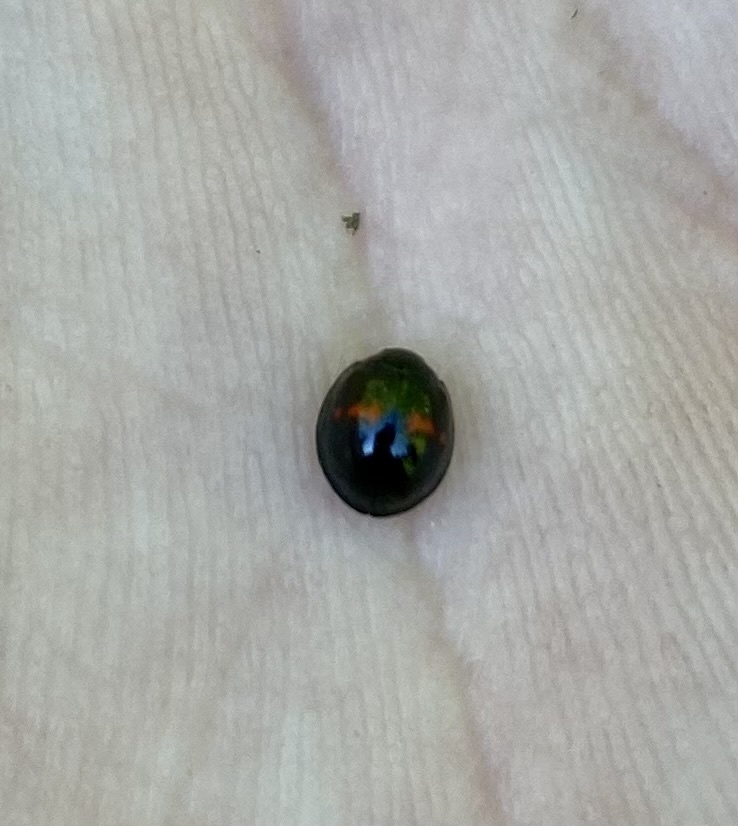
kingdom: Animalia
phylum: Arthropoda
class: Insecta
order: Coleoptera
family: Coccinellidae
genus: Chilocorus
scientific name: Chilocorus bipustulatus
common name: Heather ladybird
